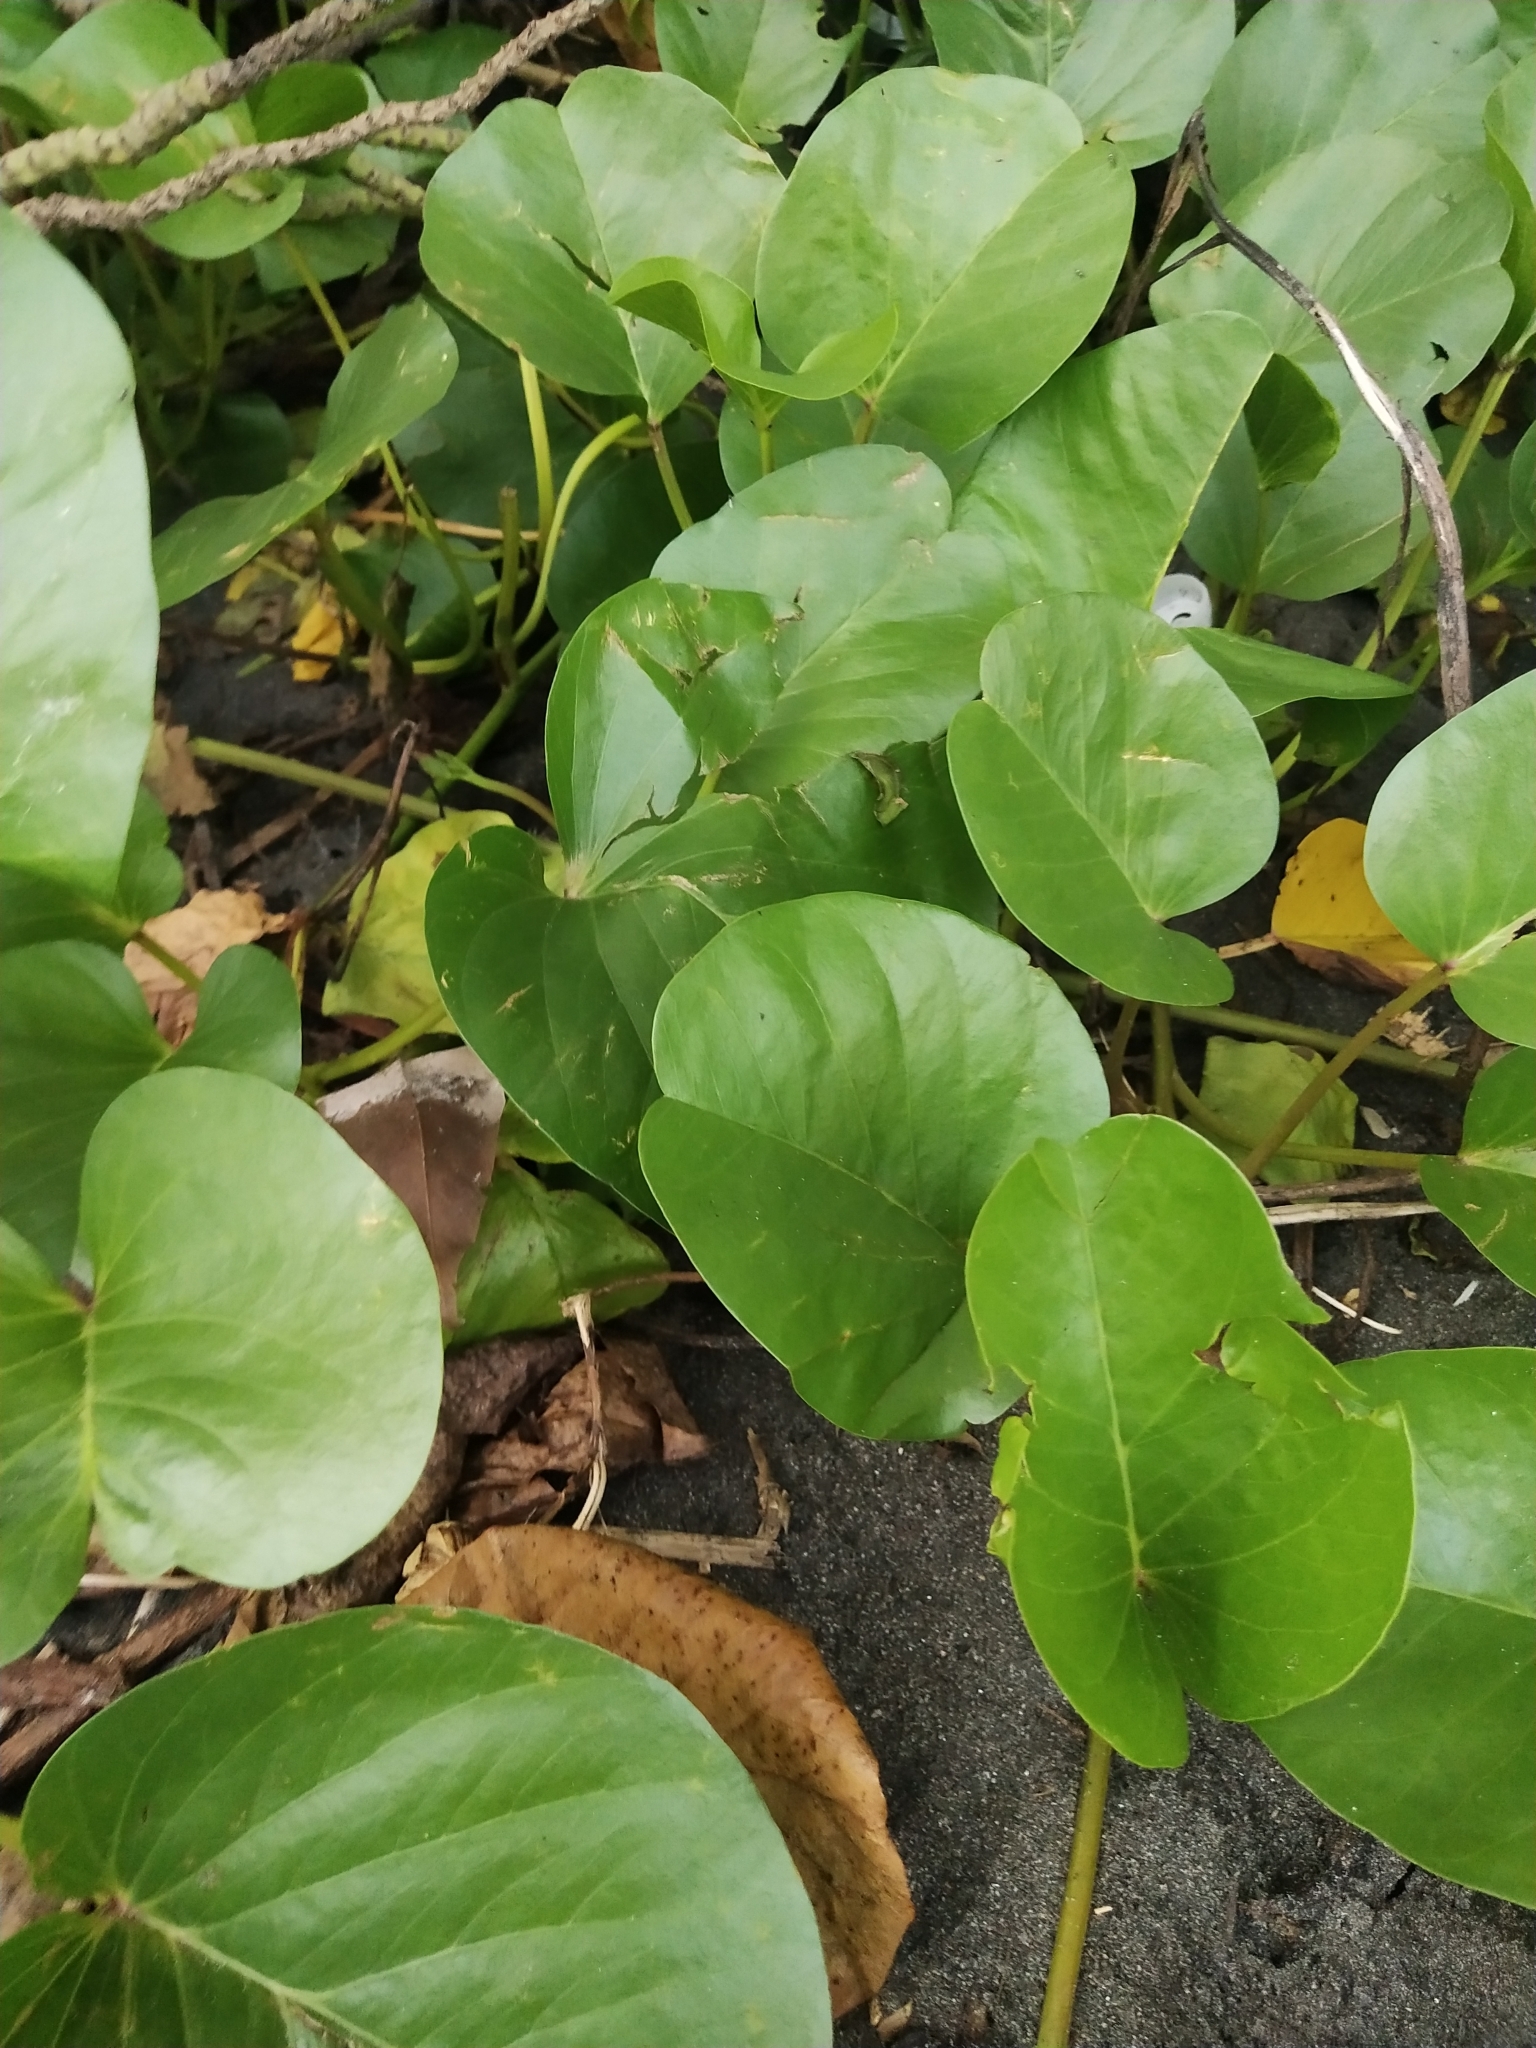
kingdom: Plantae
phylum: Tracheophyta
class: Magnoliopsida
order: Solanales
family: Convolvulaceae
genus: Ipomoea
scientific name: Ipomoea pes-caprae
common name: Beach morning glory
